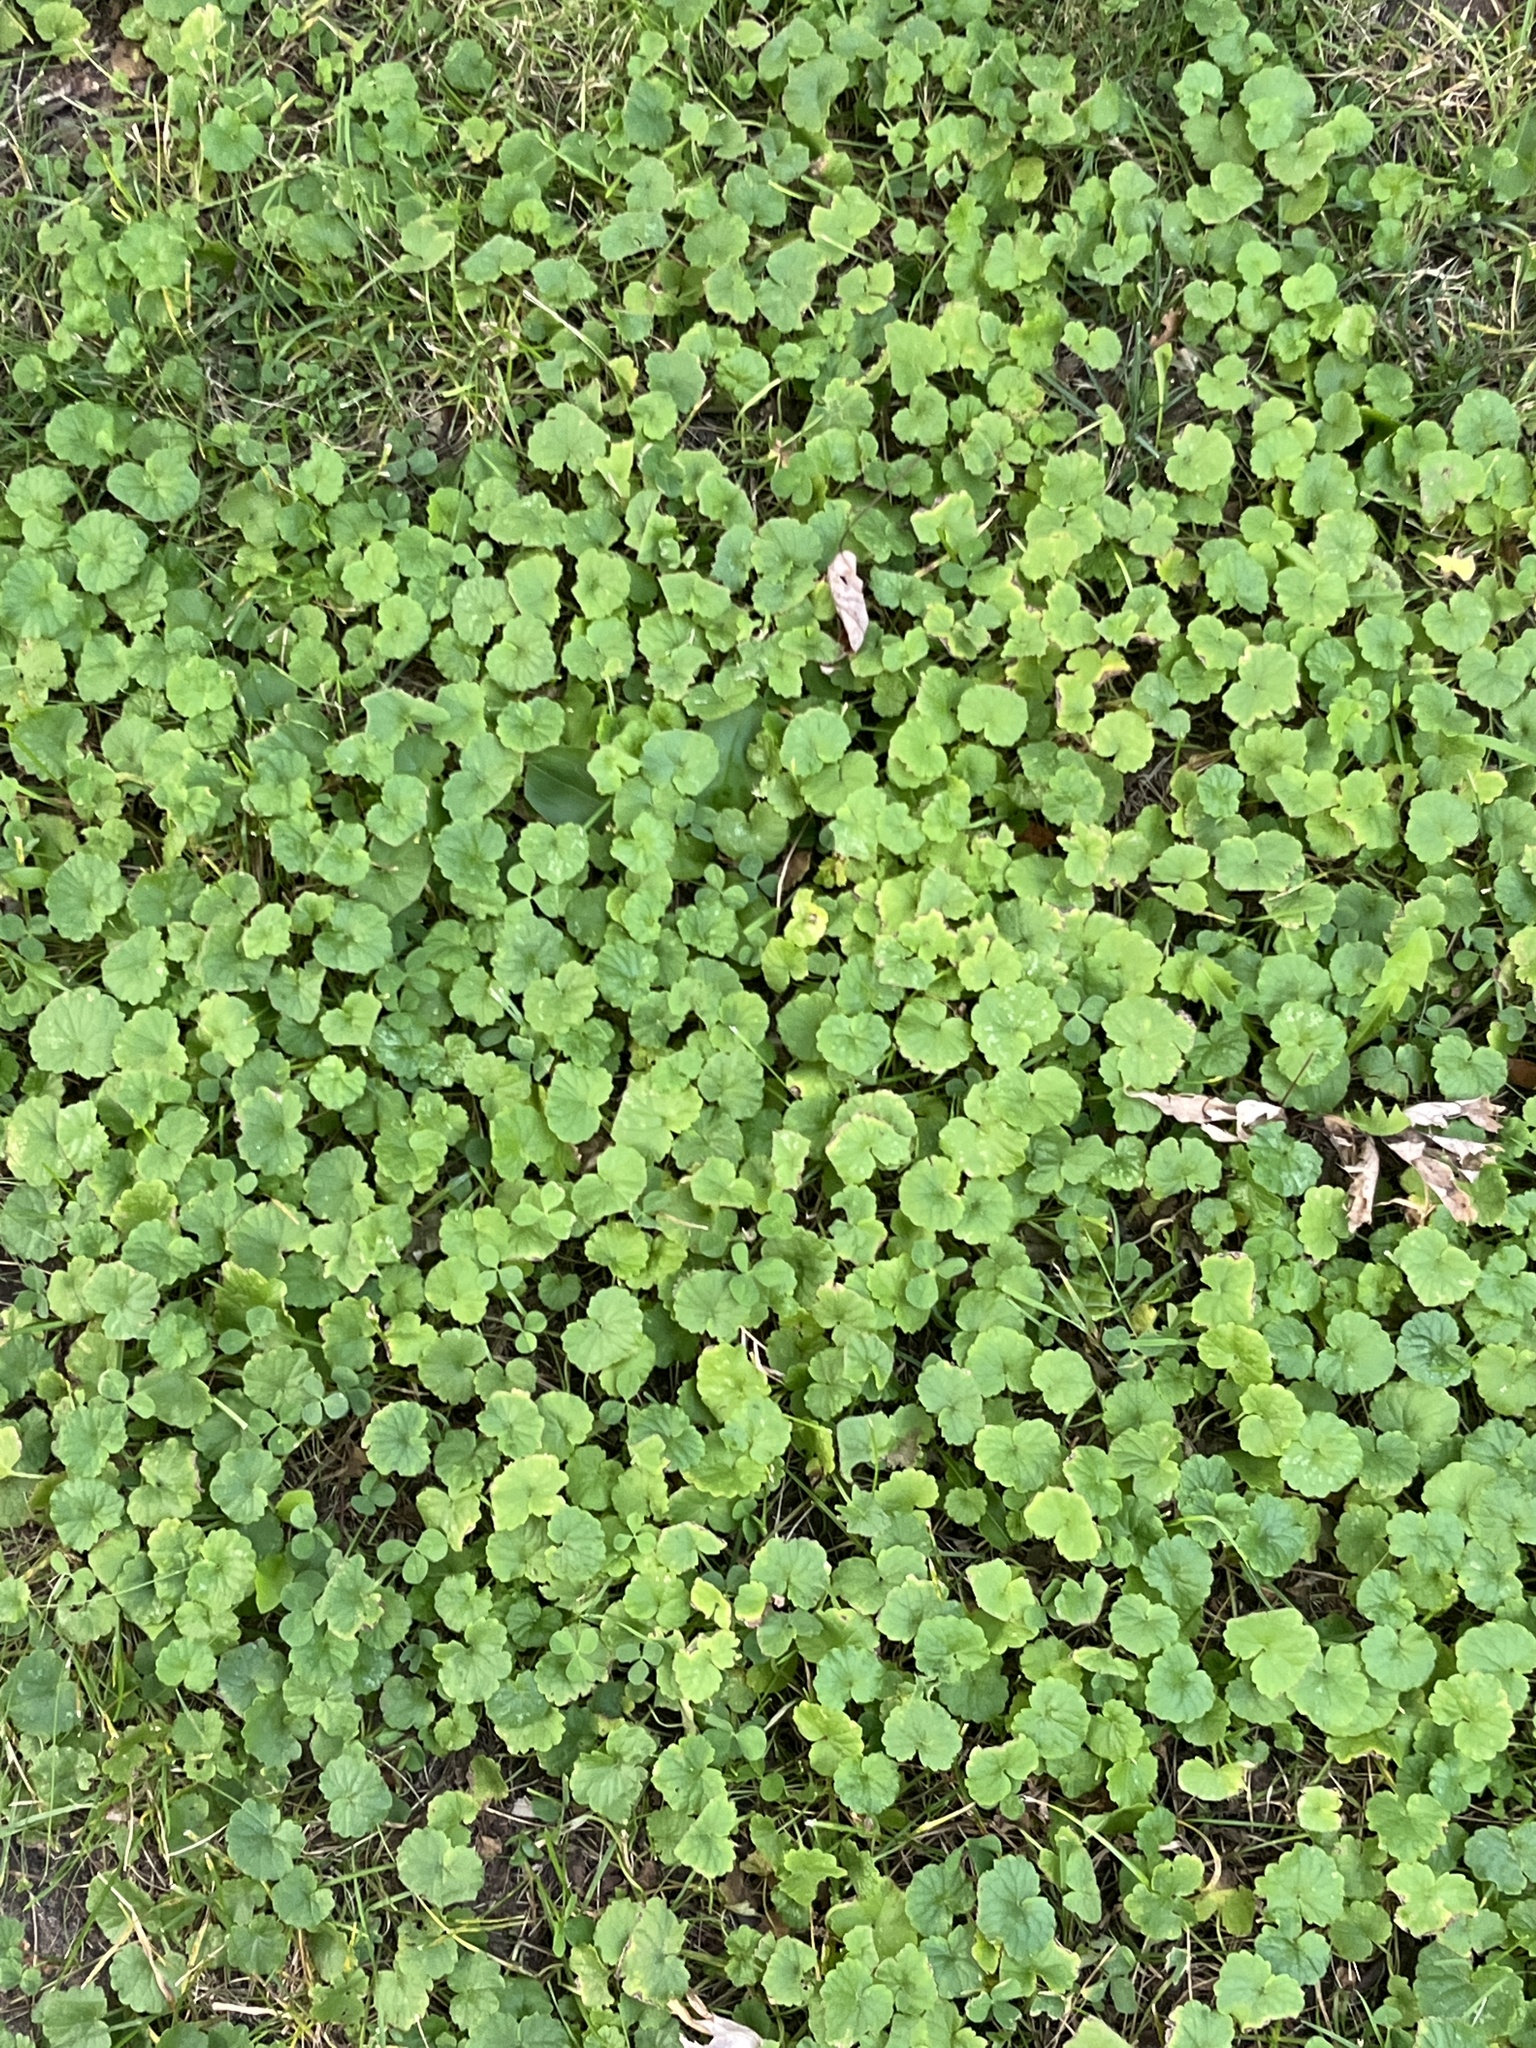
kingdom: Plantae
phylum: Tracheophyta
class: Magnoliopsida
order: Lamiales
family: Lamiaceae
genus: Glechoma
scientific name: Glechoma hederacea
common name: Ground ivy
